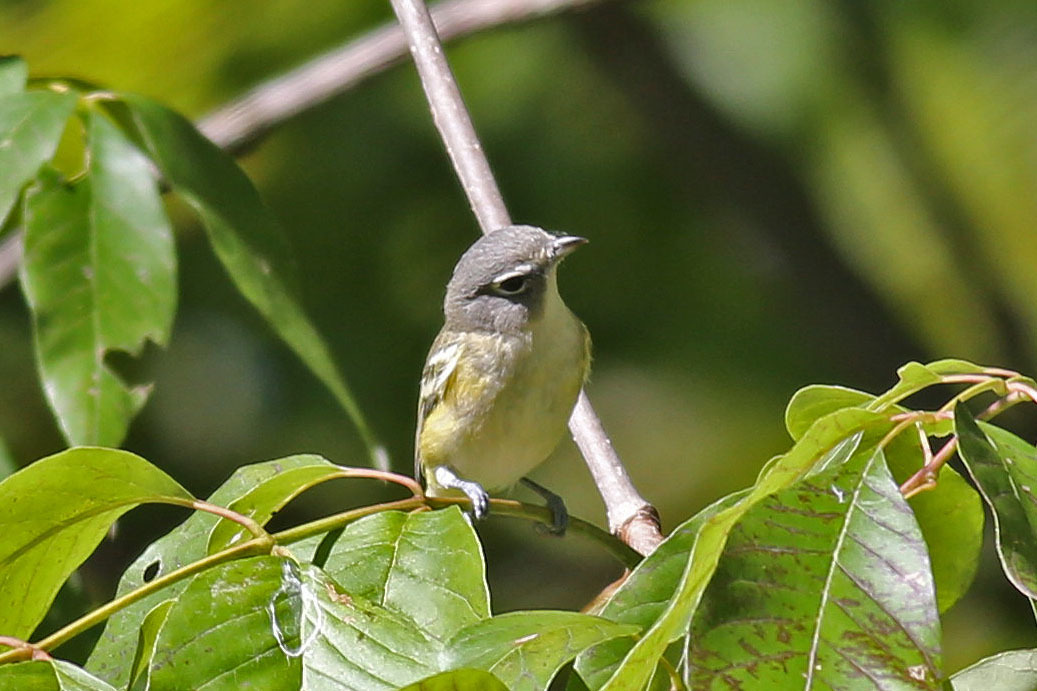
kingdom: Animalia
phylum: Chordata
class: Aves
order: Passeriformes
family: Vireonidae
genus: Vireo
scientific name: Vireo solitarius
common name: Blue-headed vireo
